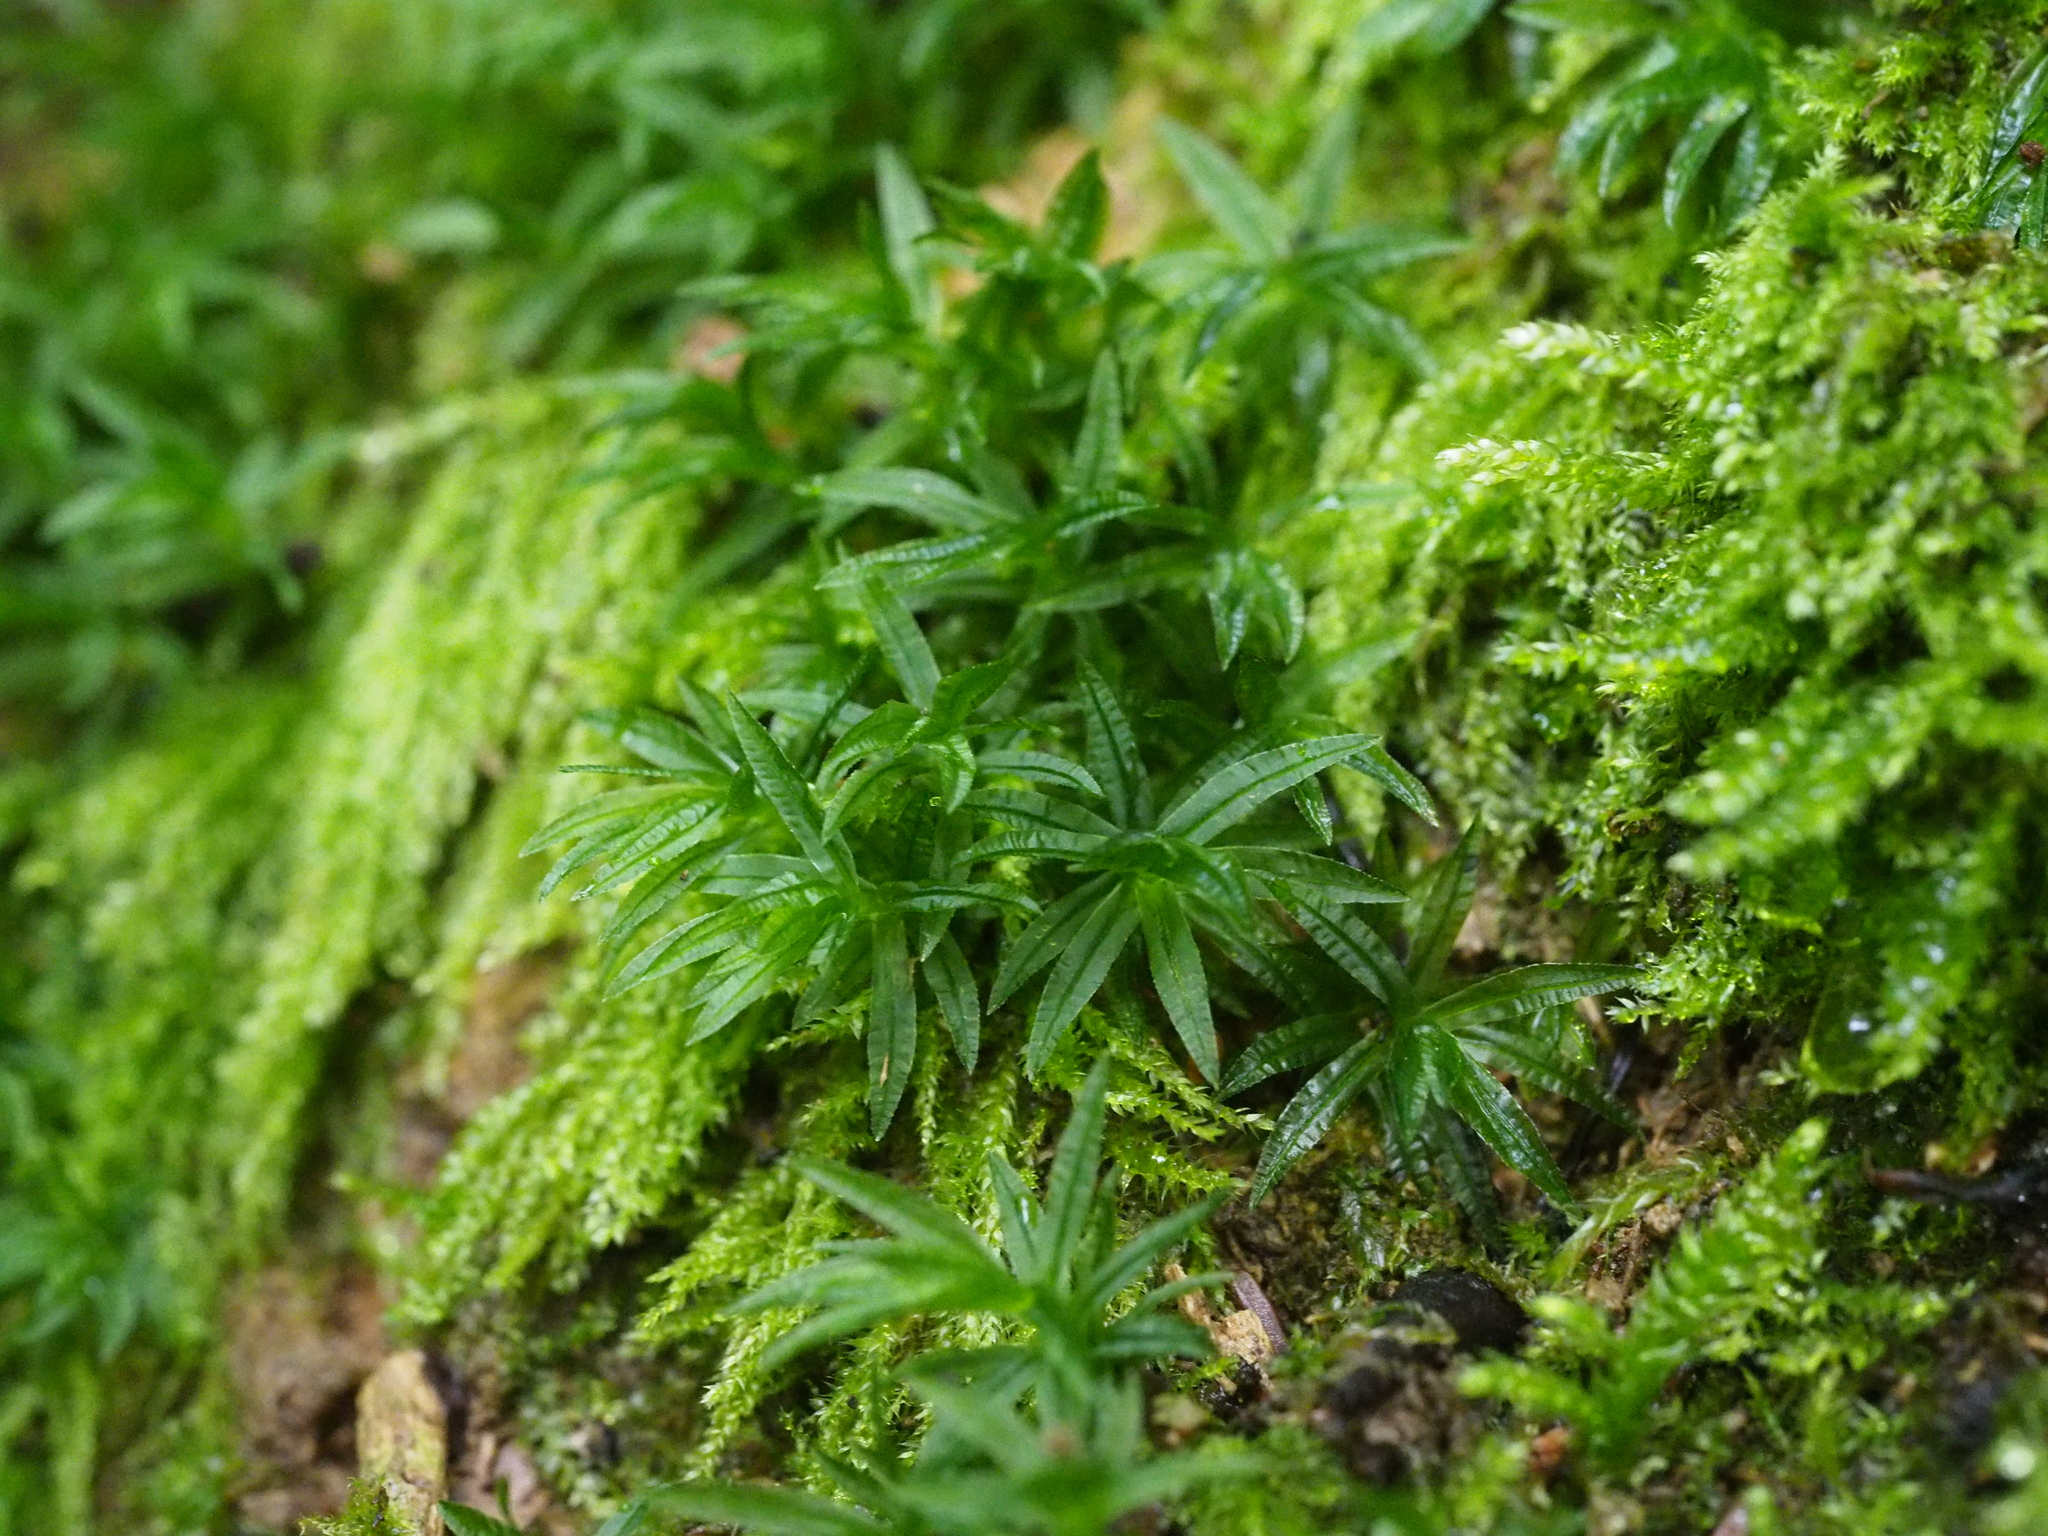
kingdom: Plantae
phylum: Bryophyta
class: Polytrichopsida
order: Polytrichales
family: Polytrichaceae
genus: Atrichum
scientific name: Atrichum undulatum
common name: Common smoothcap
